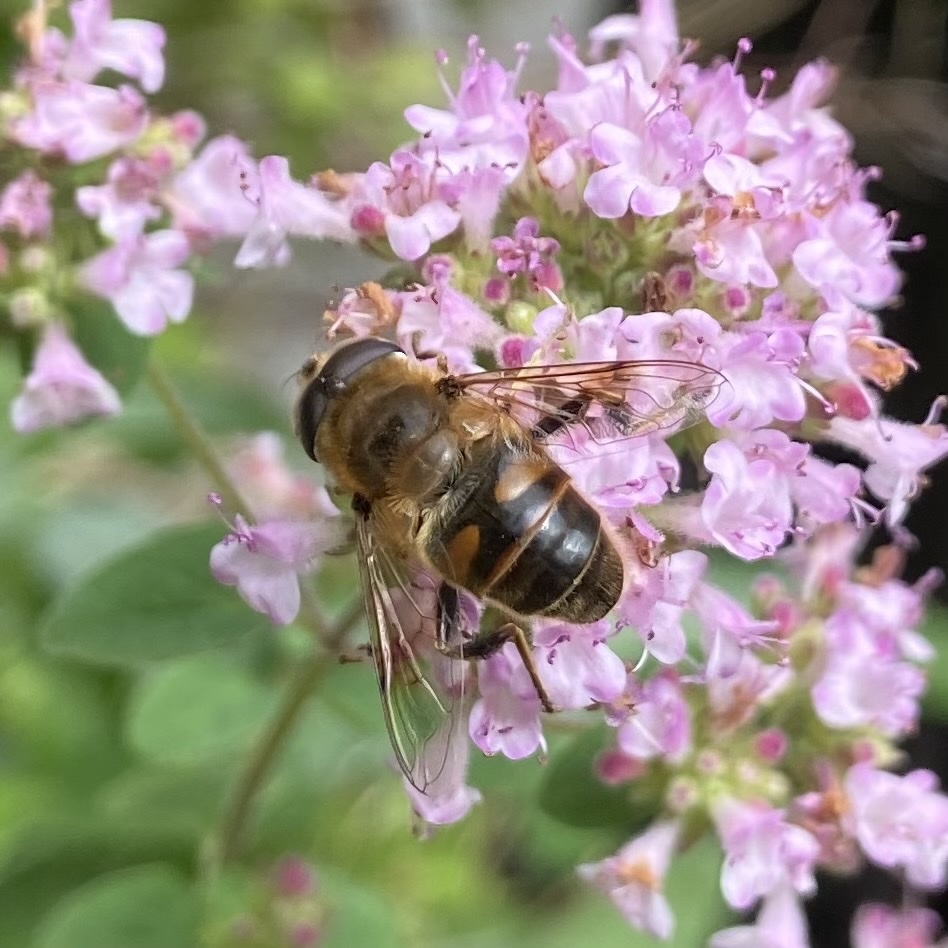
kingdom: Animalia
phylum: Arthropoda
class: Insecta
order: Diptera
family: Syrphidae
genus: Eristalis
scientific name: Eristalis tenax
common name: Drone fly
